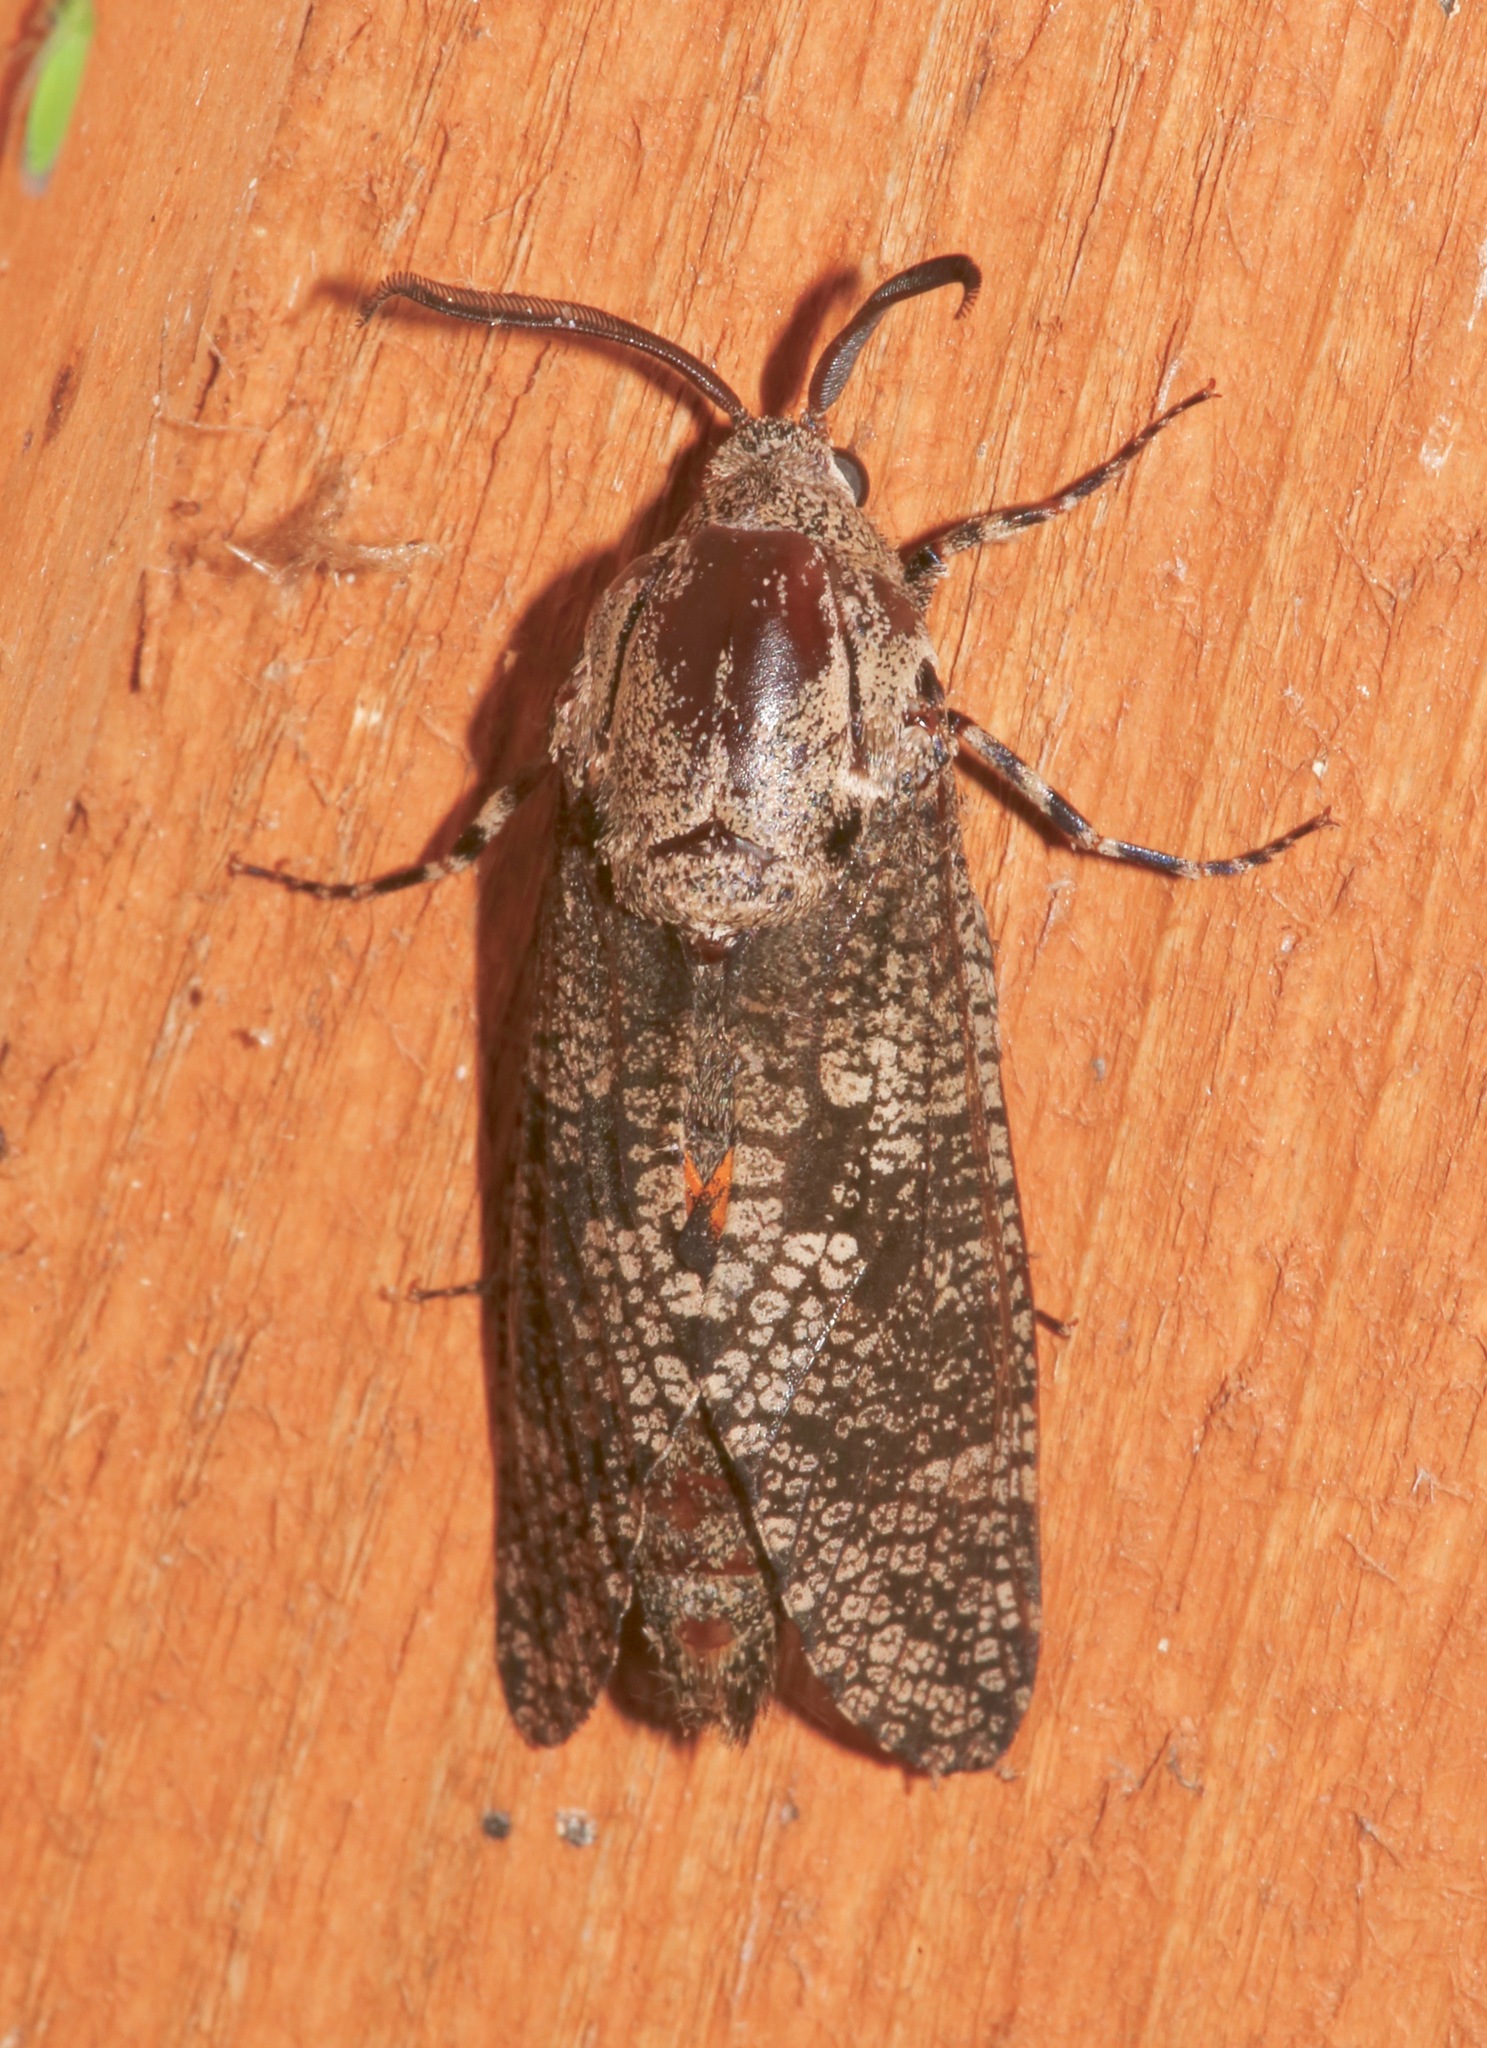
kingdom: Animalia
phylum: Arthropoda
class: Insecta
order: Lepidoptera
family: Cossidae
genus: Prionoxystus
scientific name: Prionoxystus robiniae
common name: Carpenterworm
